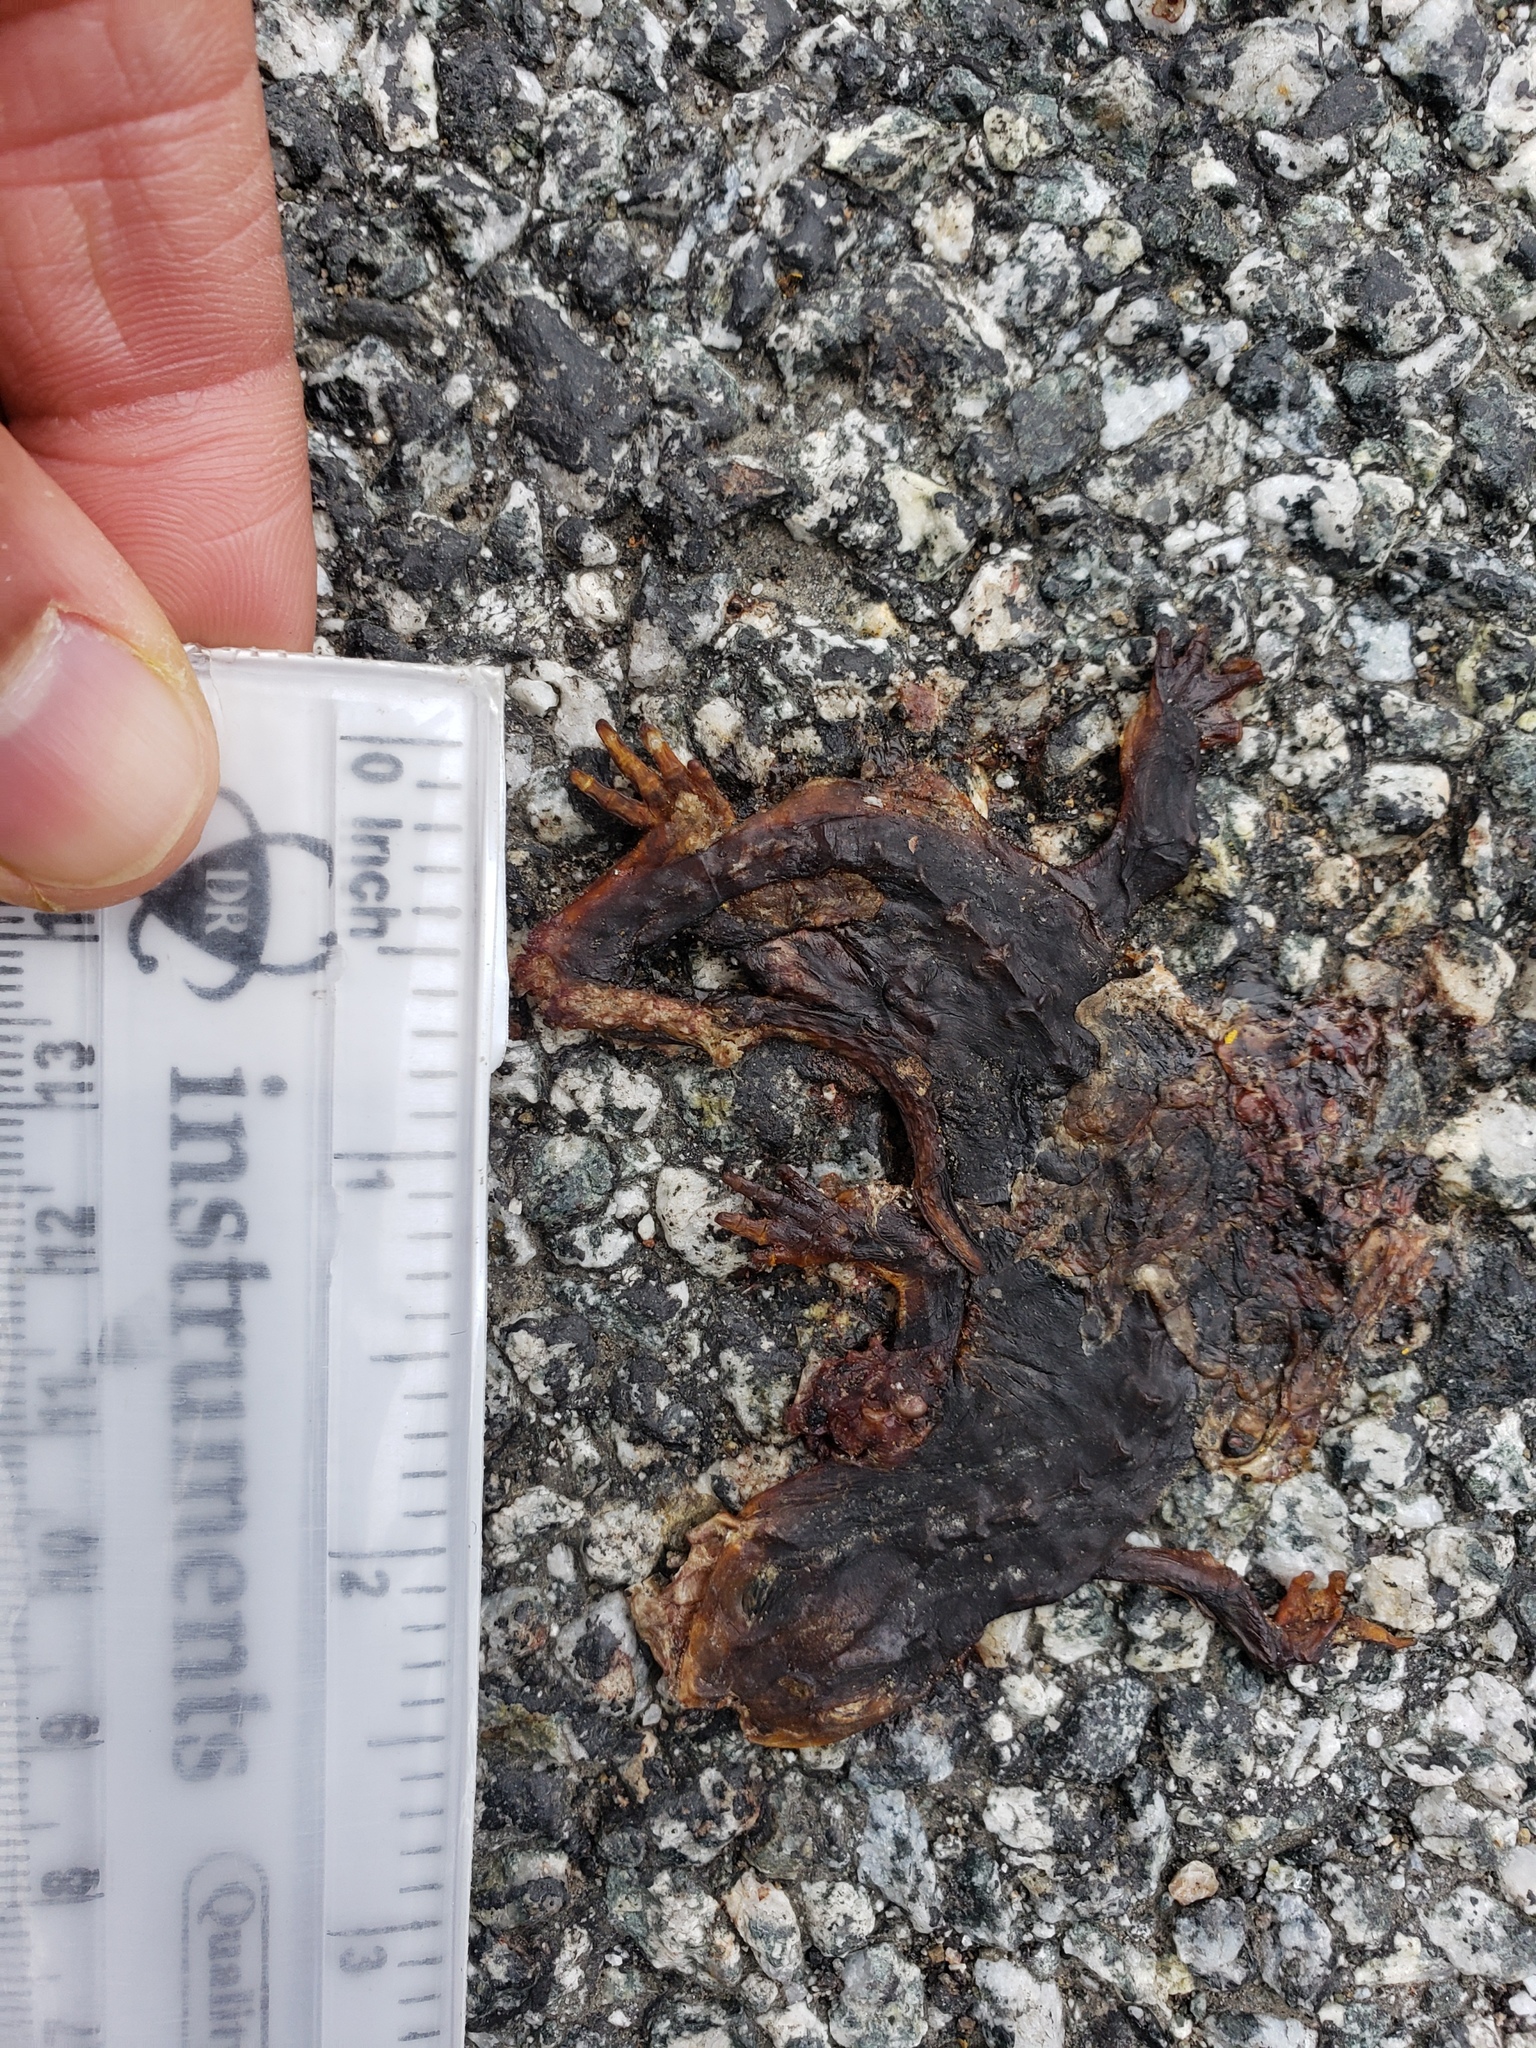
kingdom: Animalia
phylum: Chordata
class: Amphibia
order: Caudata
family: Salamandridae
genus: Taricha
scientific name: Taricha
